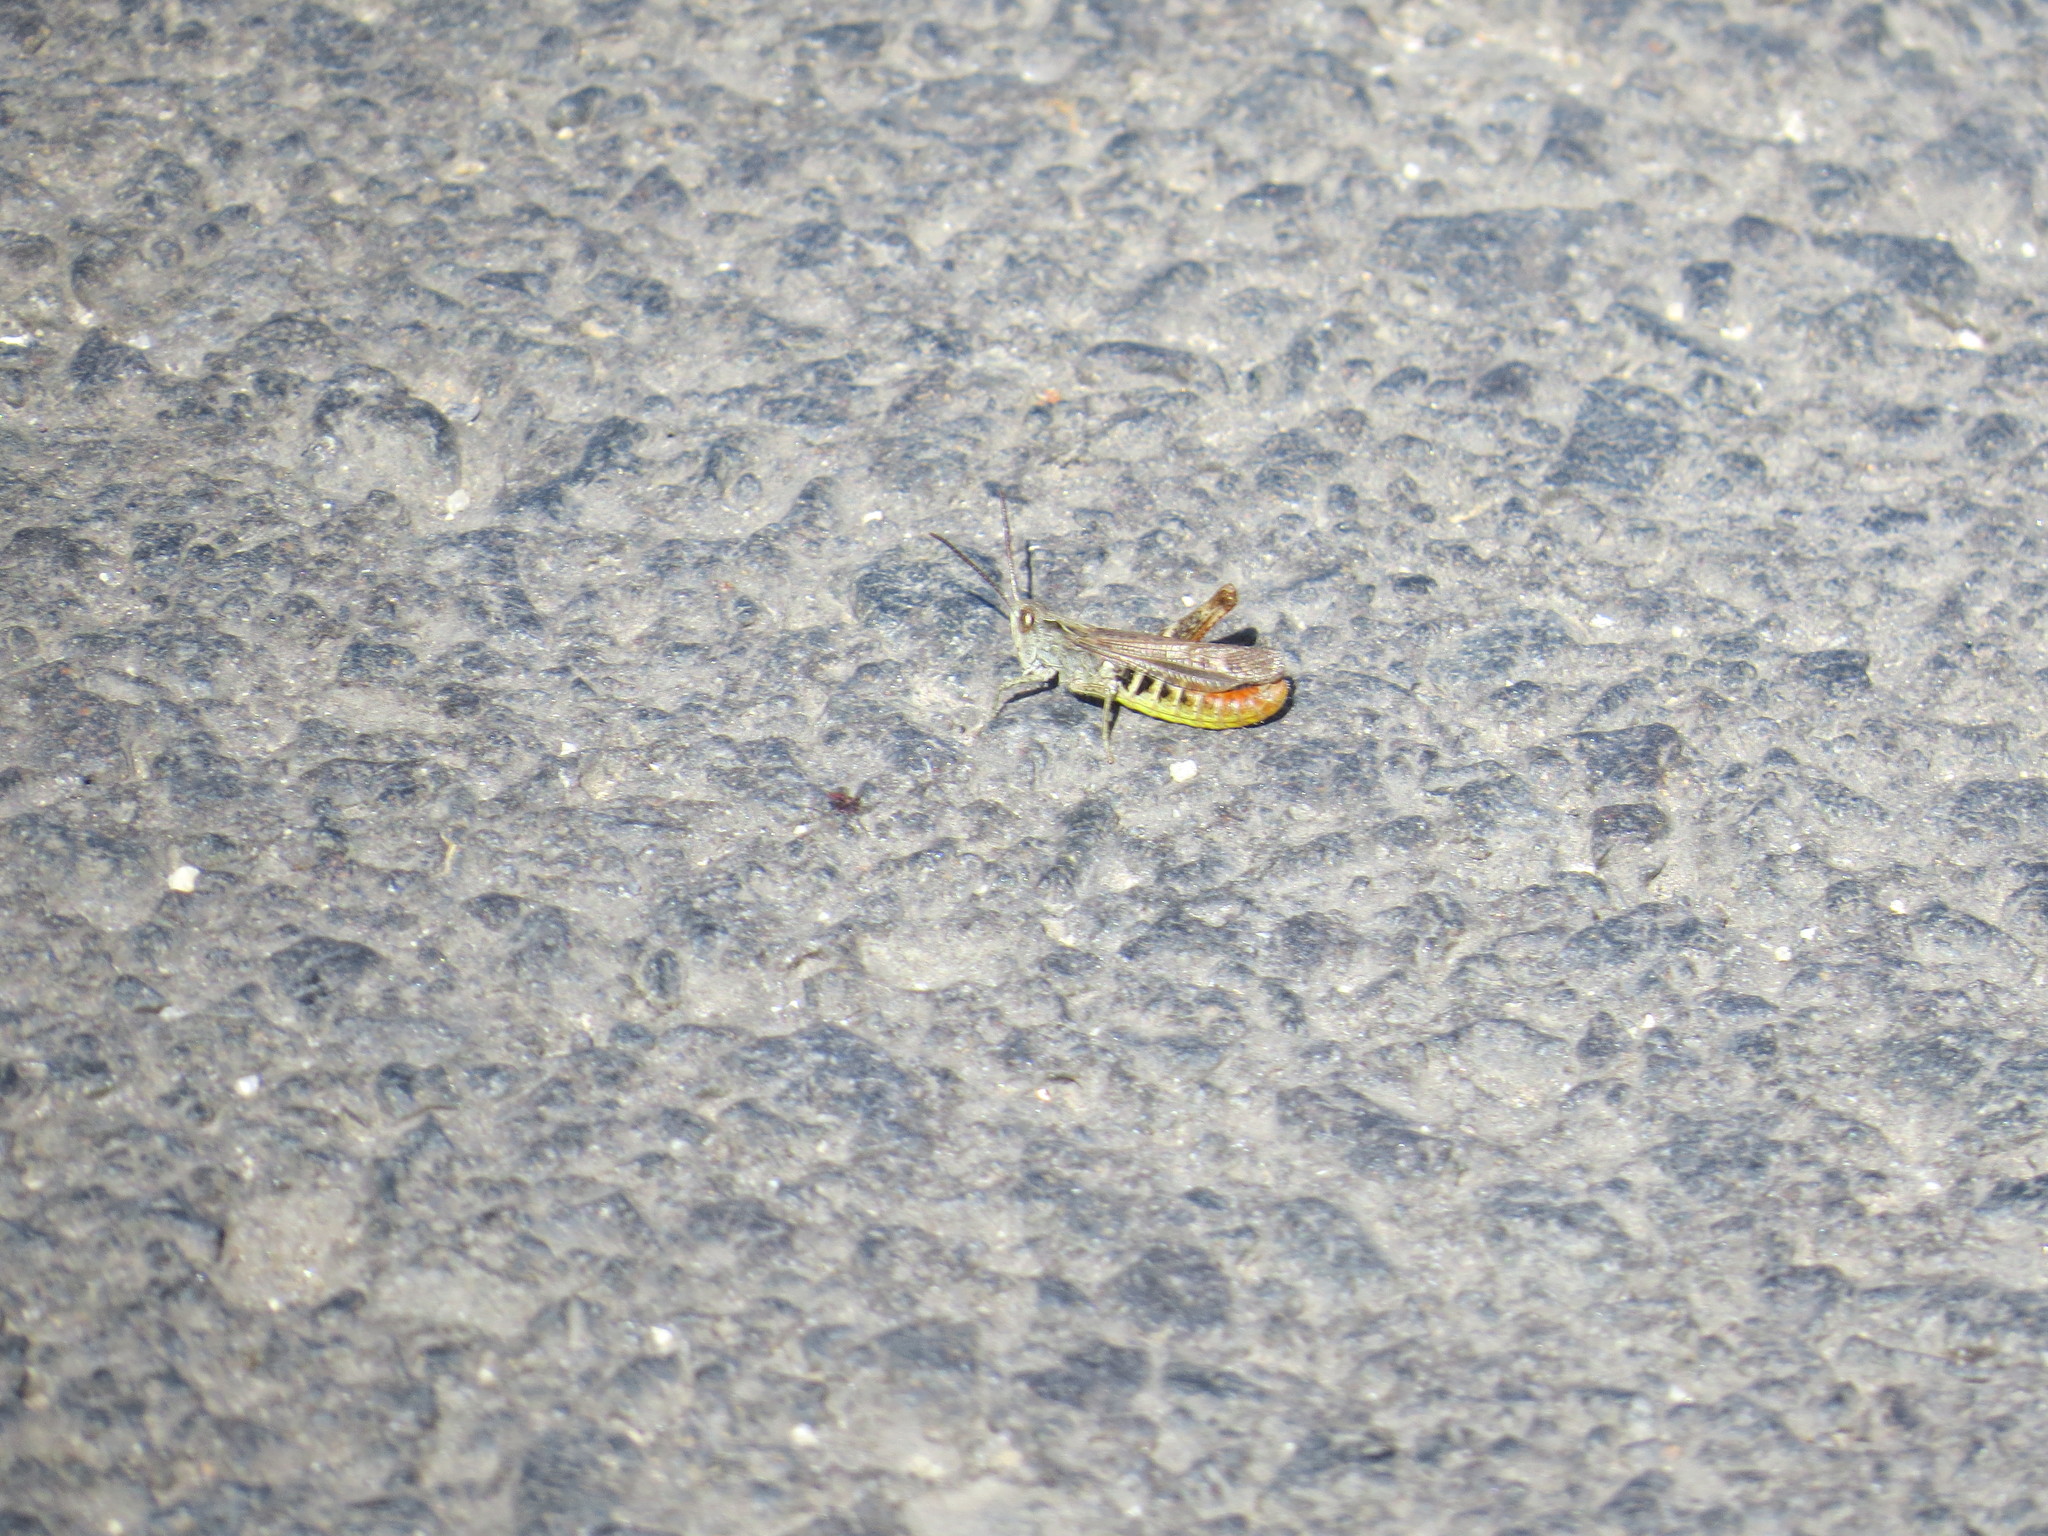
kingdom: Animalia
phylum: Arthropoda
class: Insecta
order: Orthoptera
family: Acrididae
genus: Chorthippus
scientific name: Chorthippus biguttulus
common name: Bow-winged grasshopper
